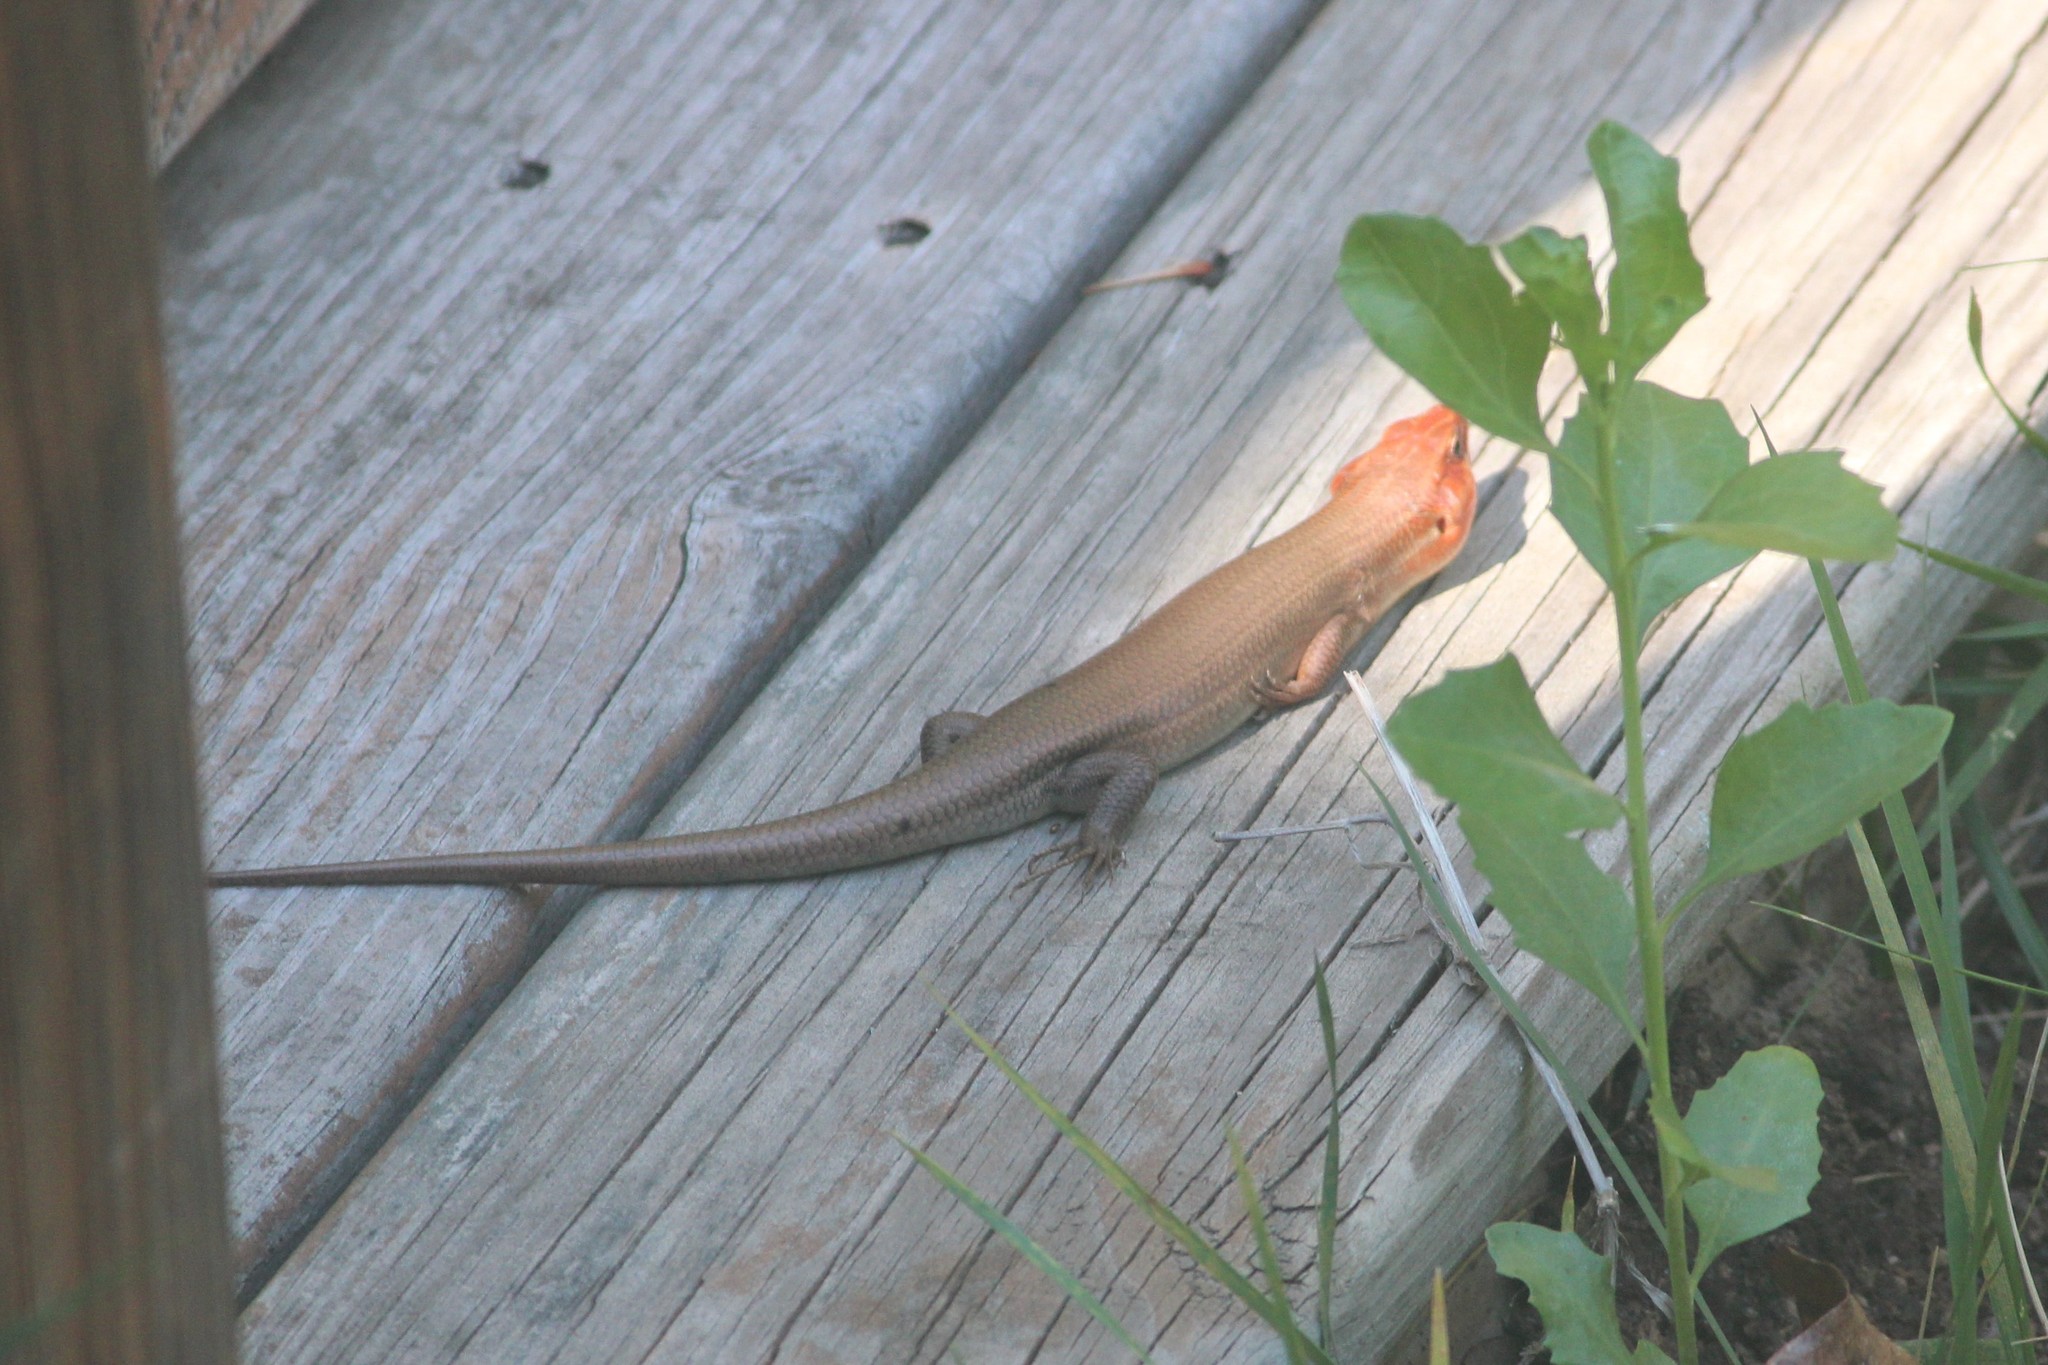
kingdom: Animalia
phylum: Chordata
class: Squamata
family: Scincidae
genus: Plestiodon
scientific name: Plestiodon laticeps
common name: Broadhead skink
